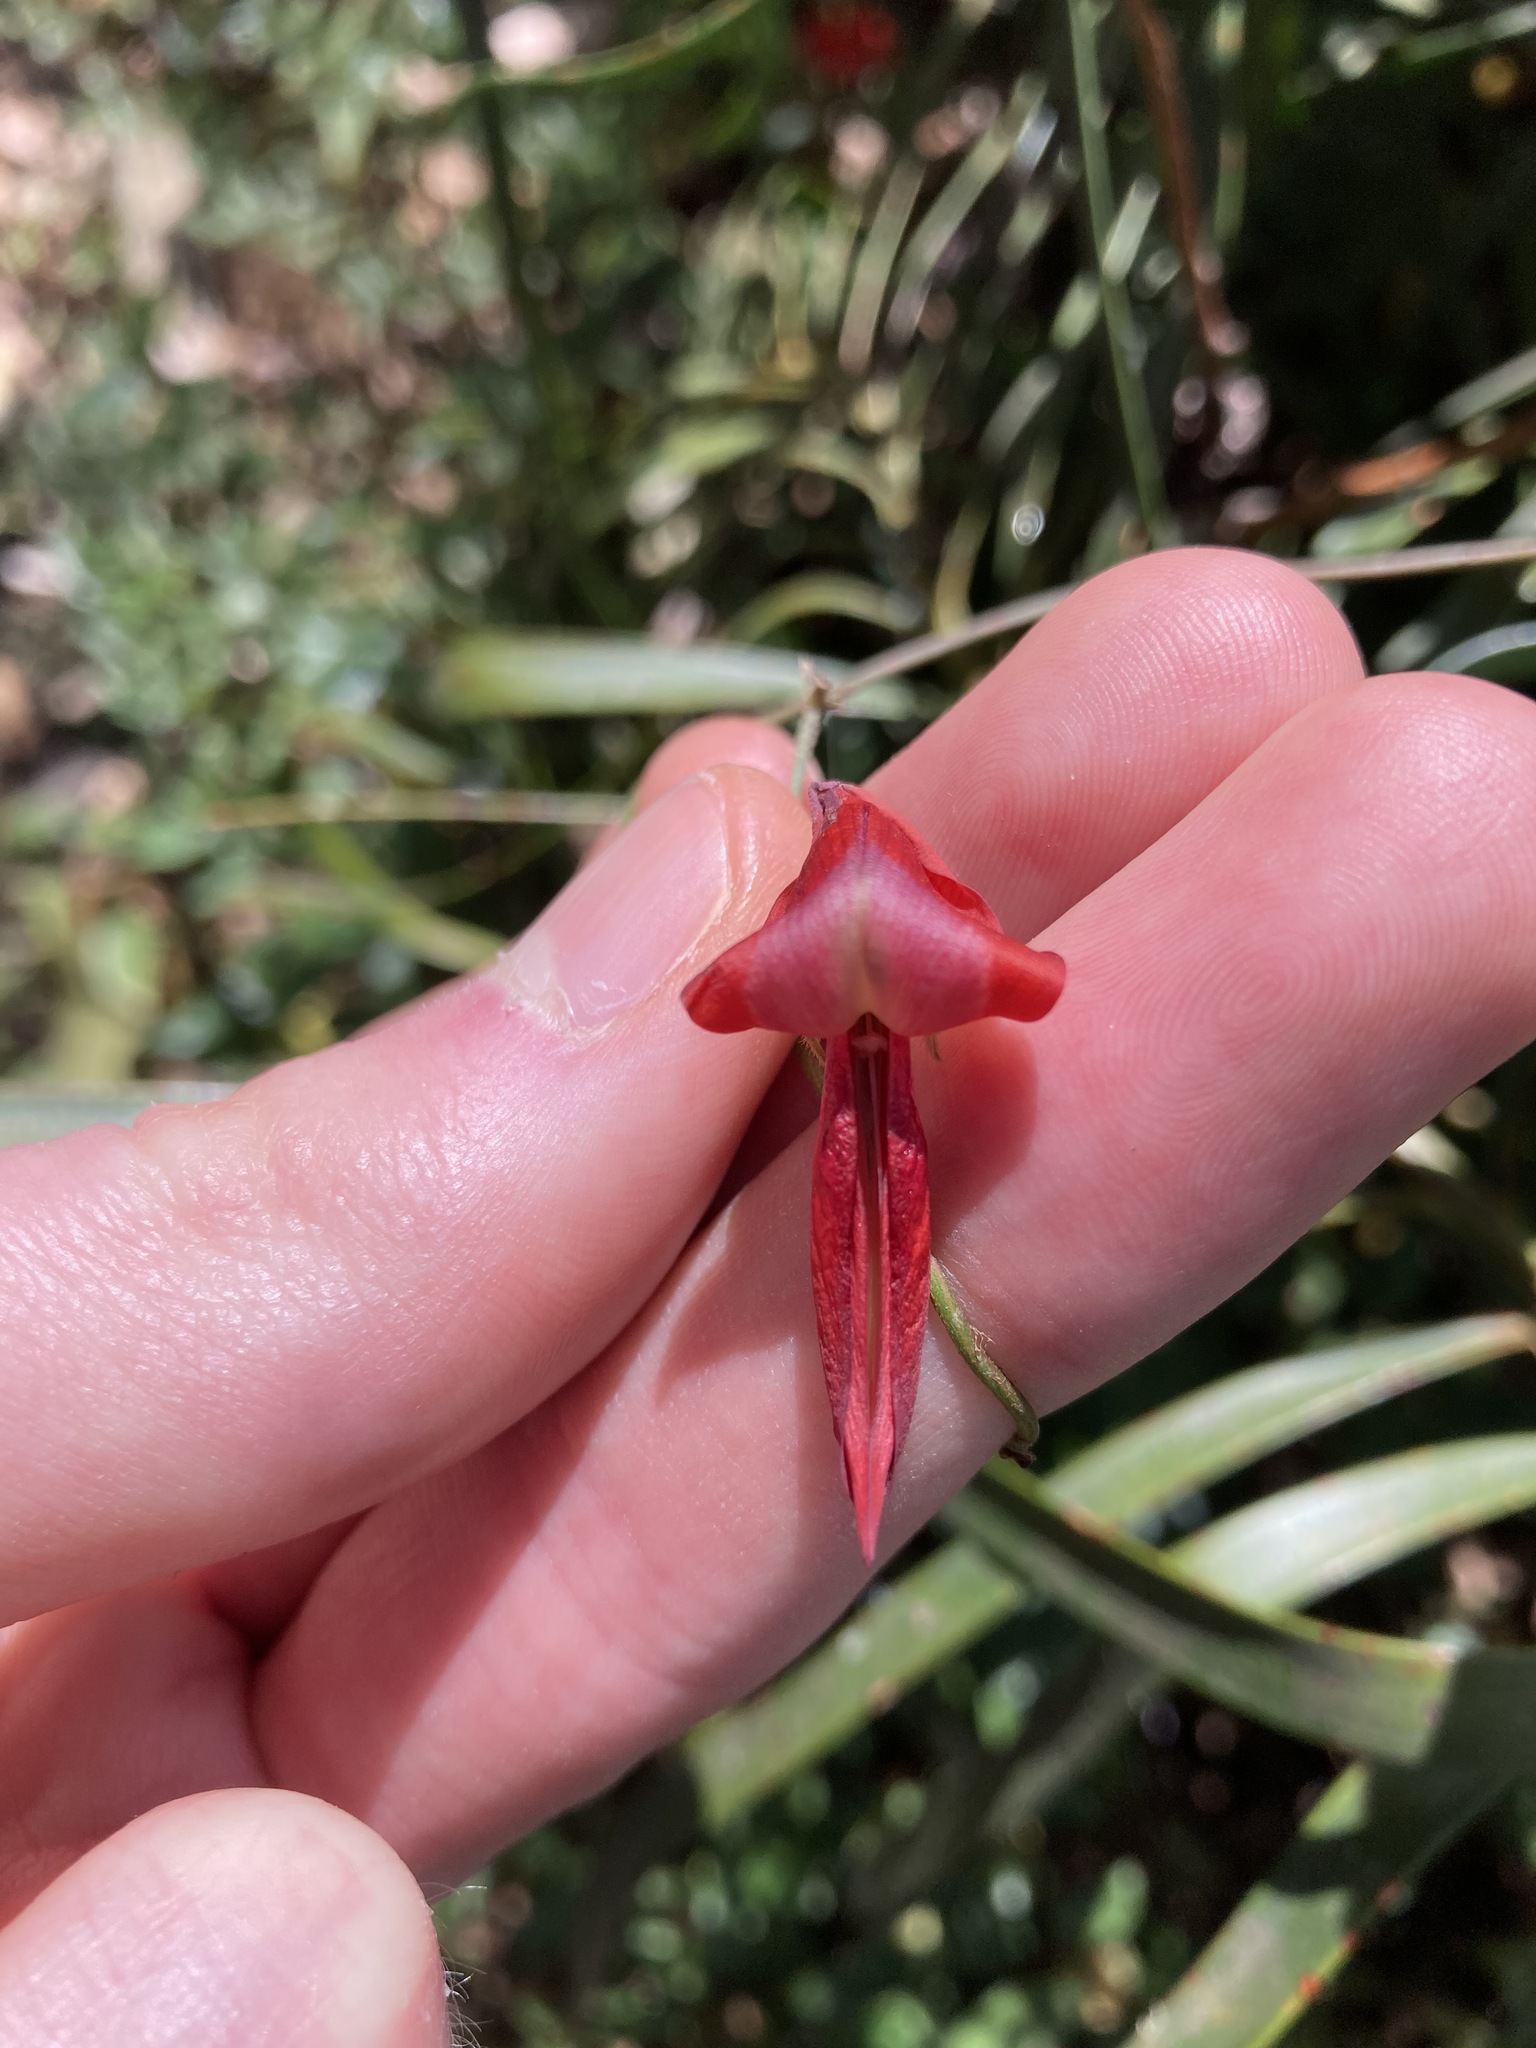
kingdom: Plantae
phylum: Tracheophyta
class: Magnoliopsida
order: Fabales
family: Fabaceae
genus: Kennedia
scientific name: Kennedia rubicunda
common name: Red kennedy-pea
